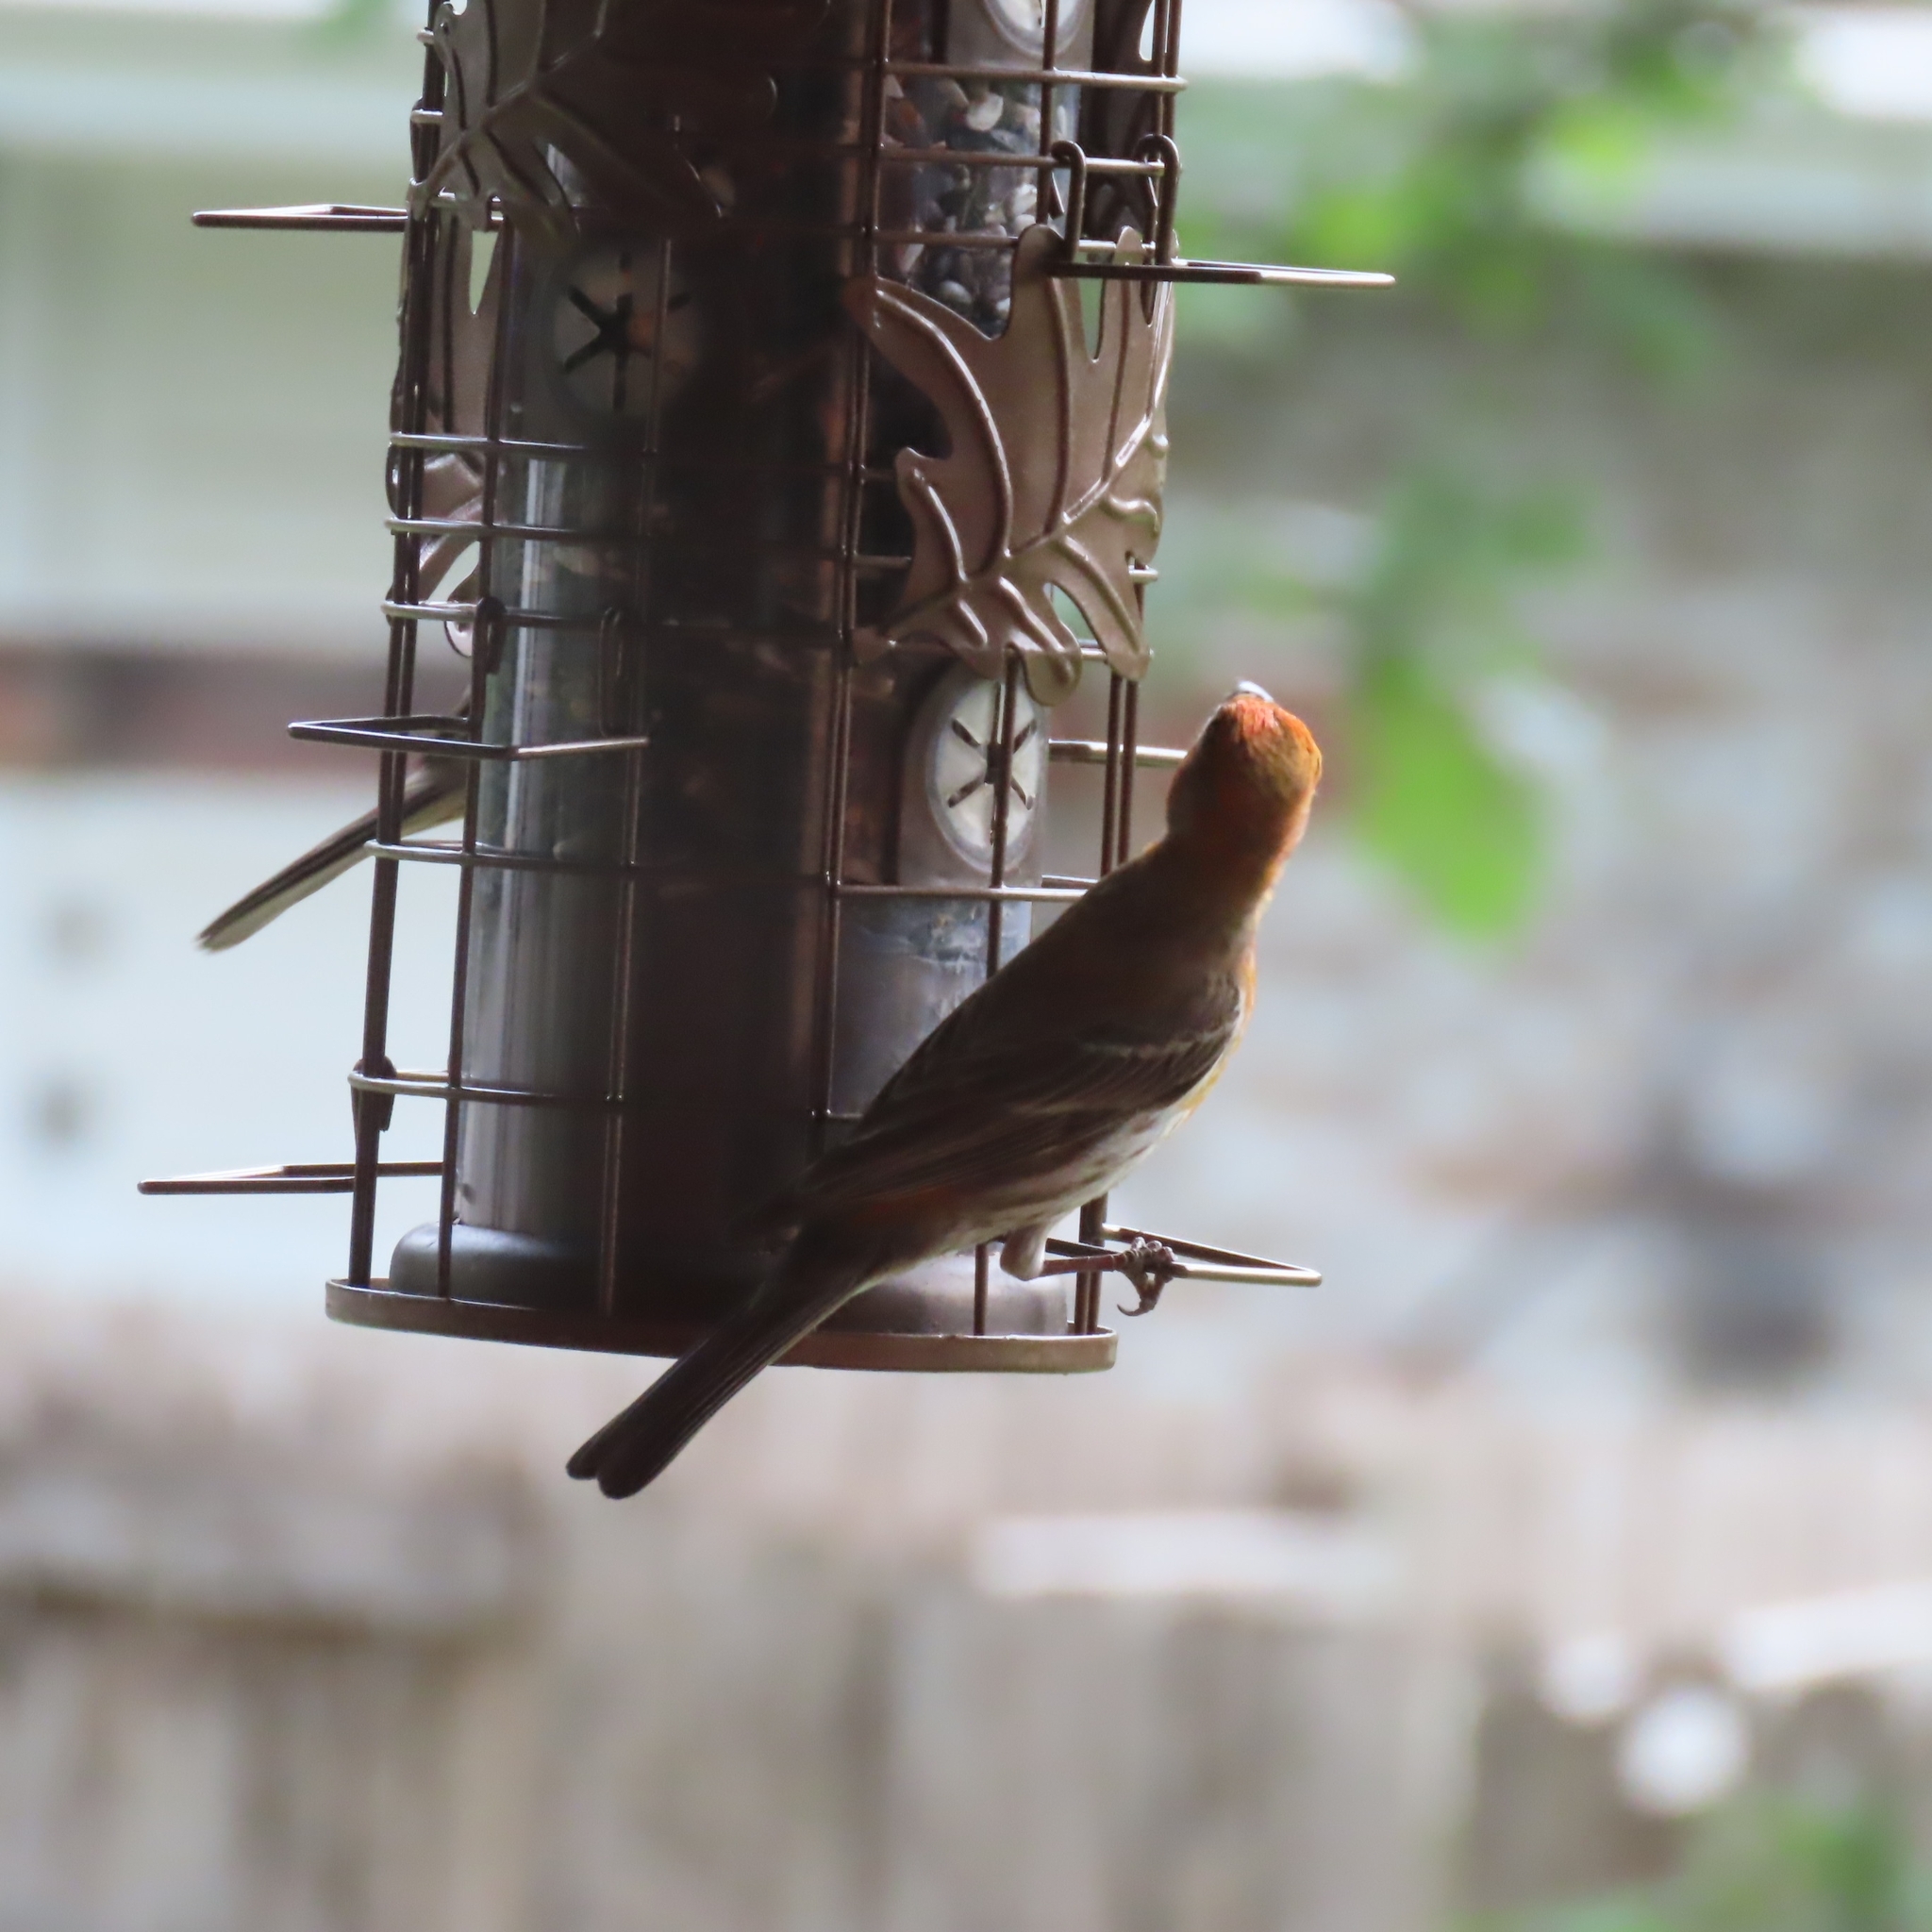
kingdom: Animalia
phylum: Chordata
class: Aves
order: Passeriformes
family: Fringillidae
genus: Haemorhous
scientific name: Haemorhous mexicanus
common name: House finch
